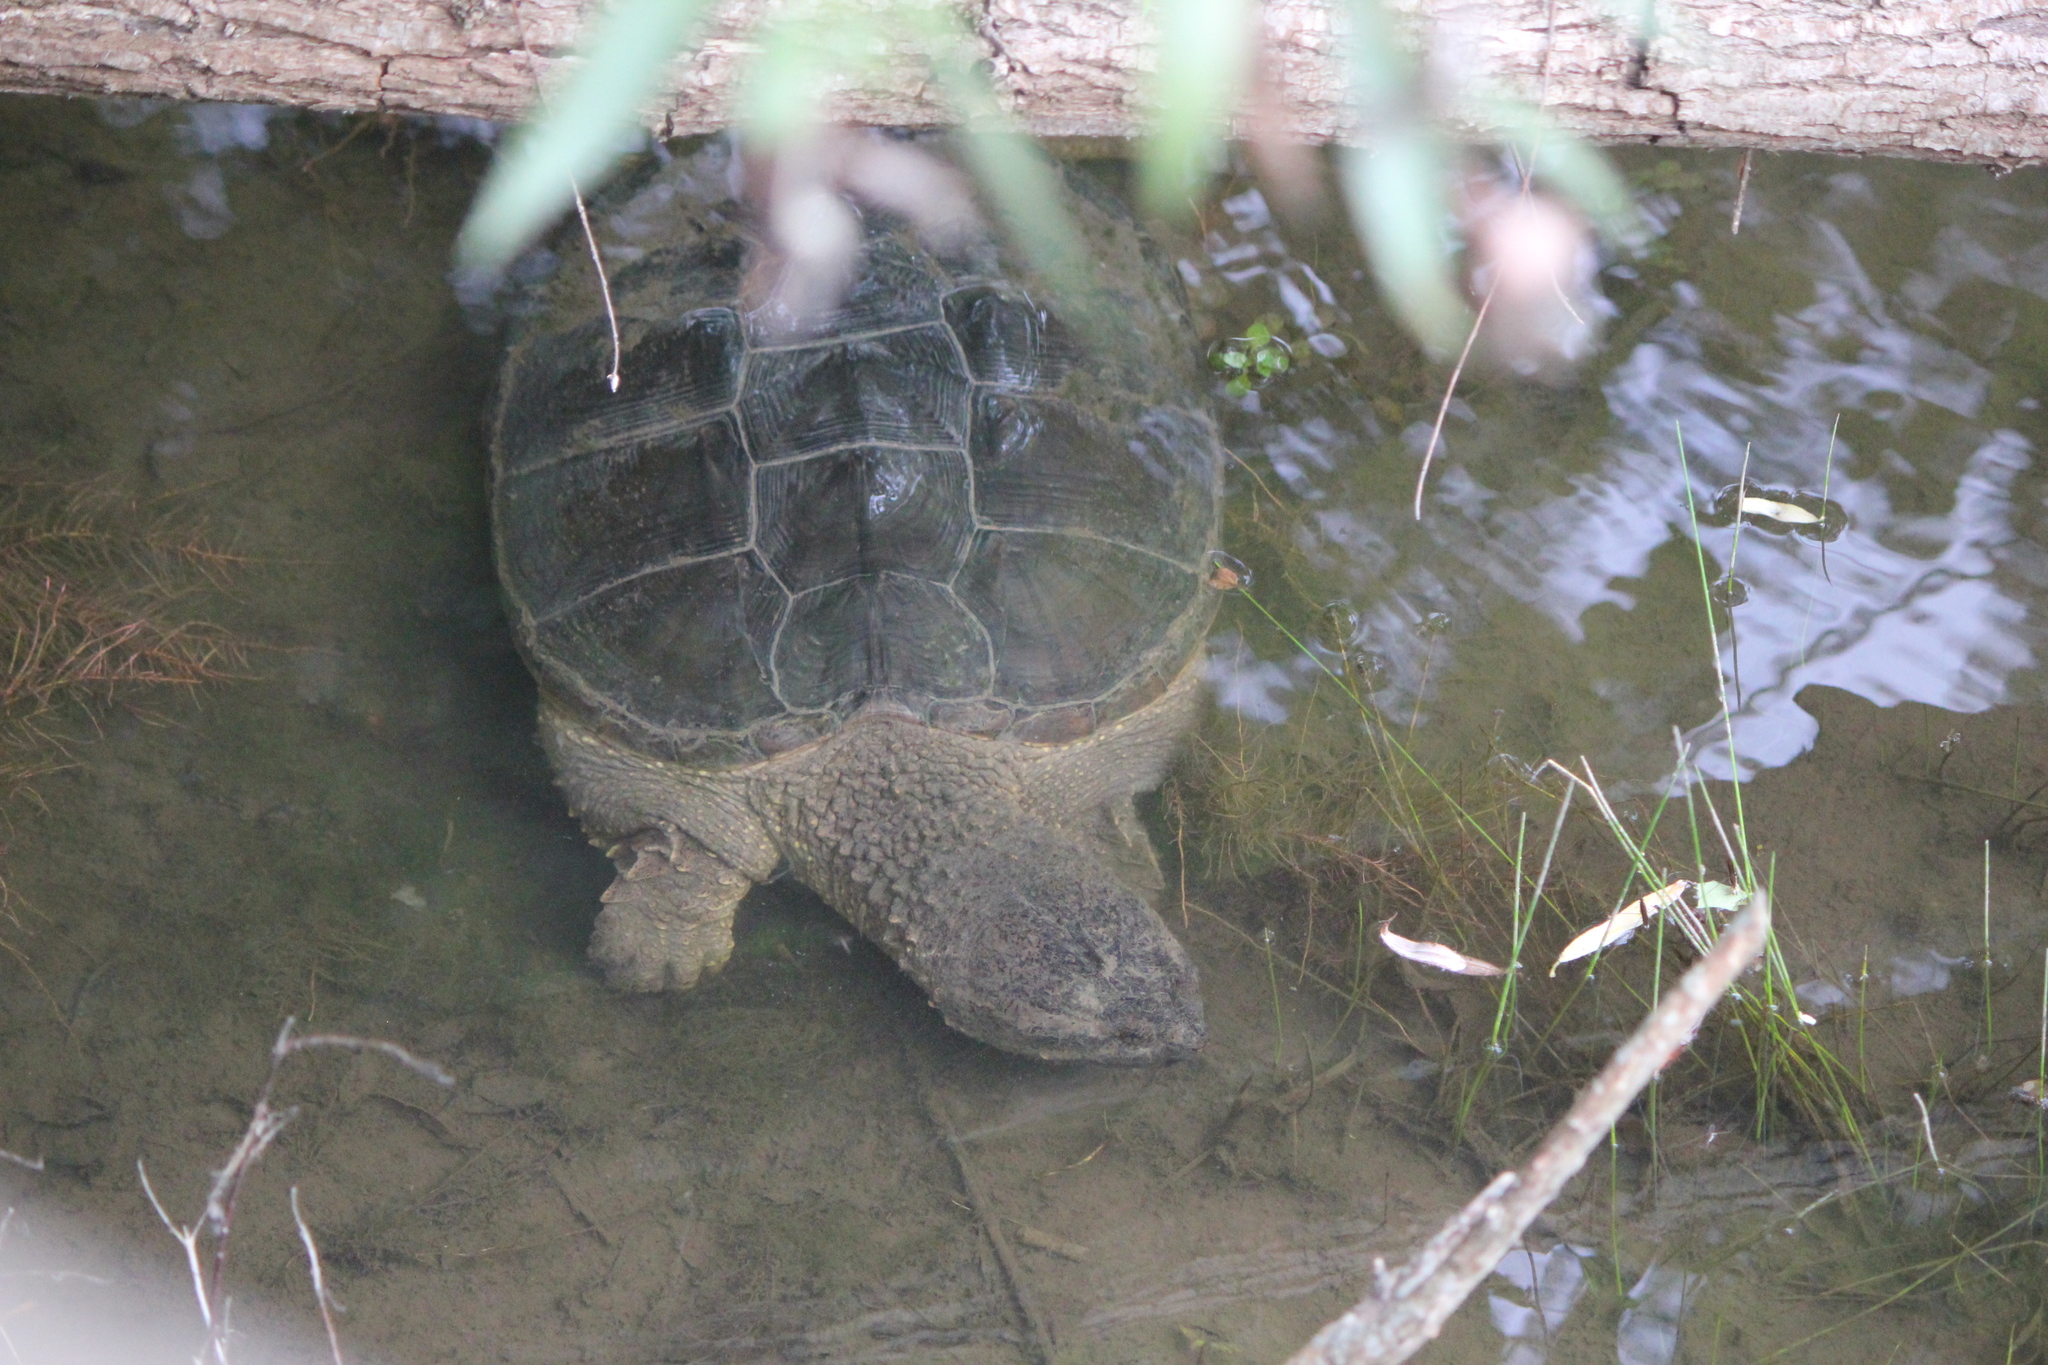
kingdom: Animalia
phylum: Chordata
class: Testudines
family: Chelydridae
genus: Chelydra
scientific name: Chelydra serpentina
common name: Common snapping turtle
